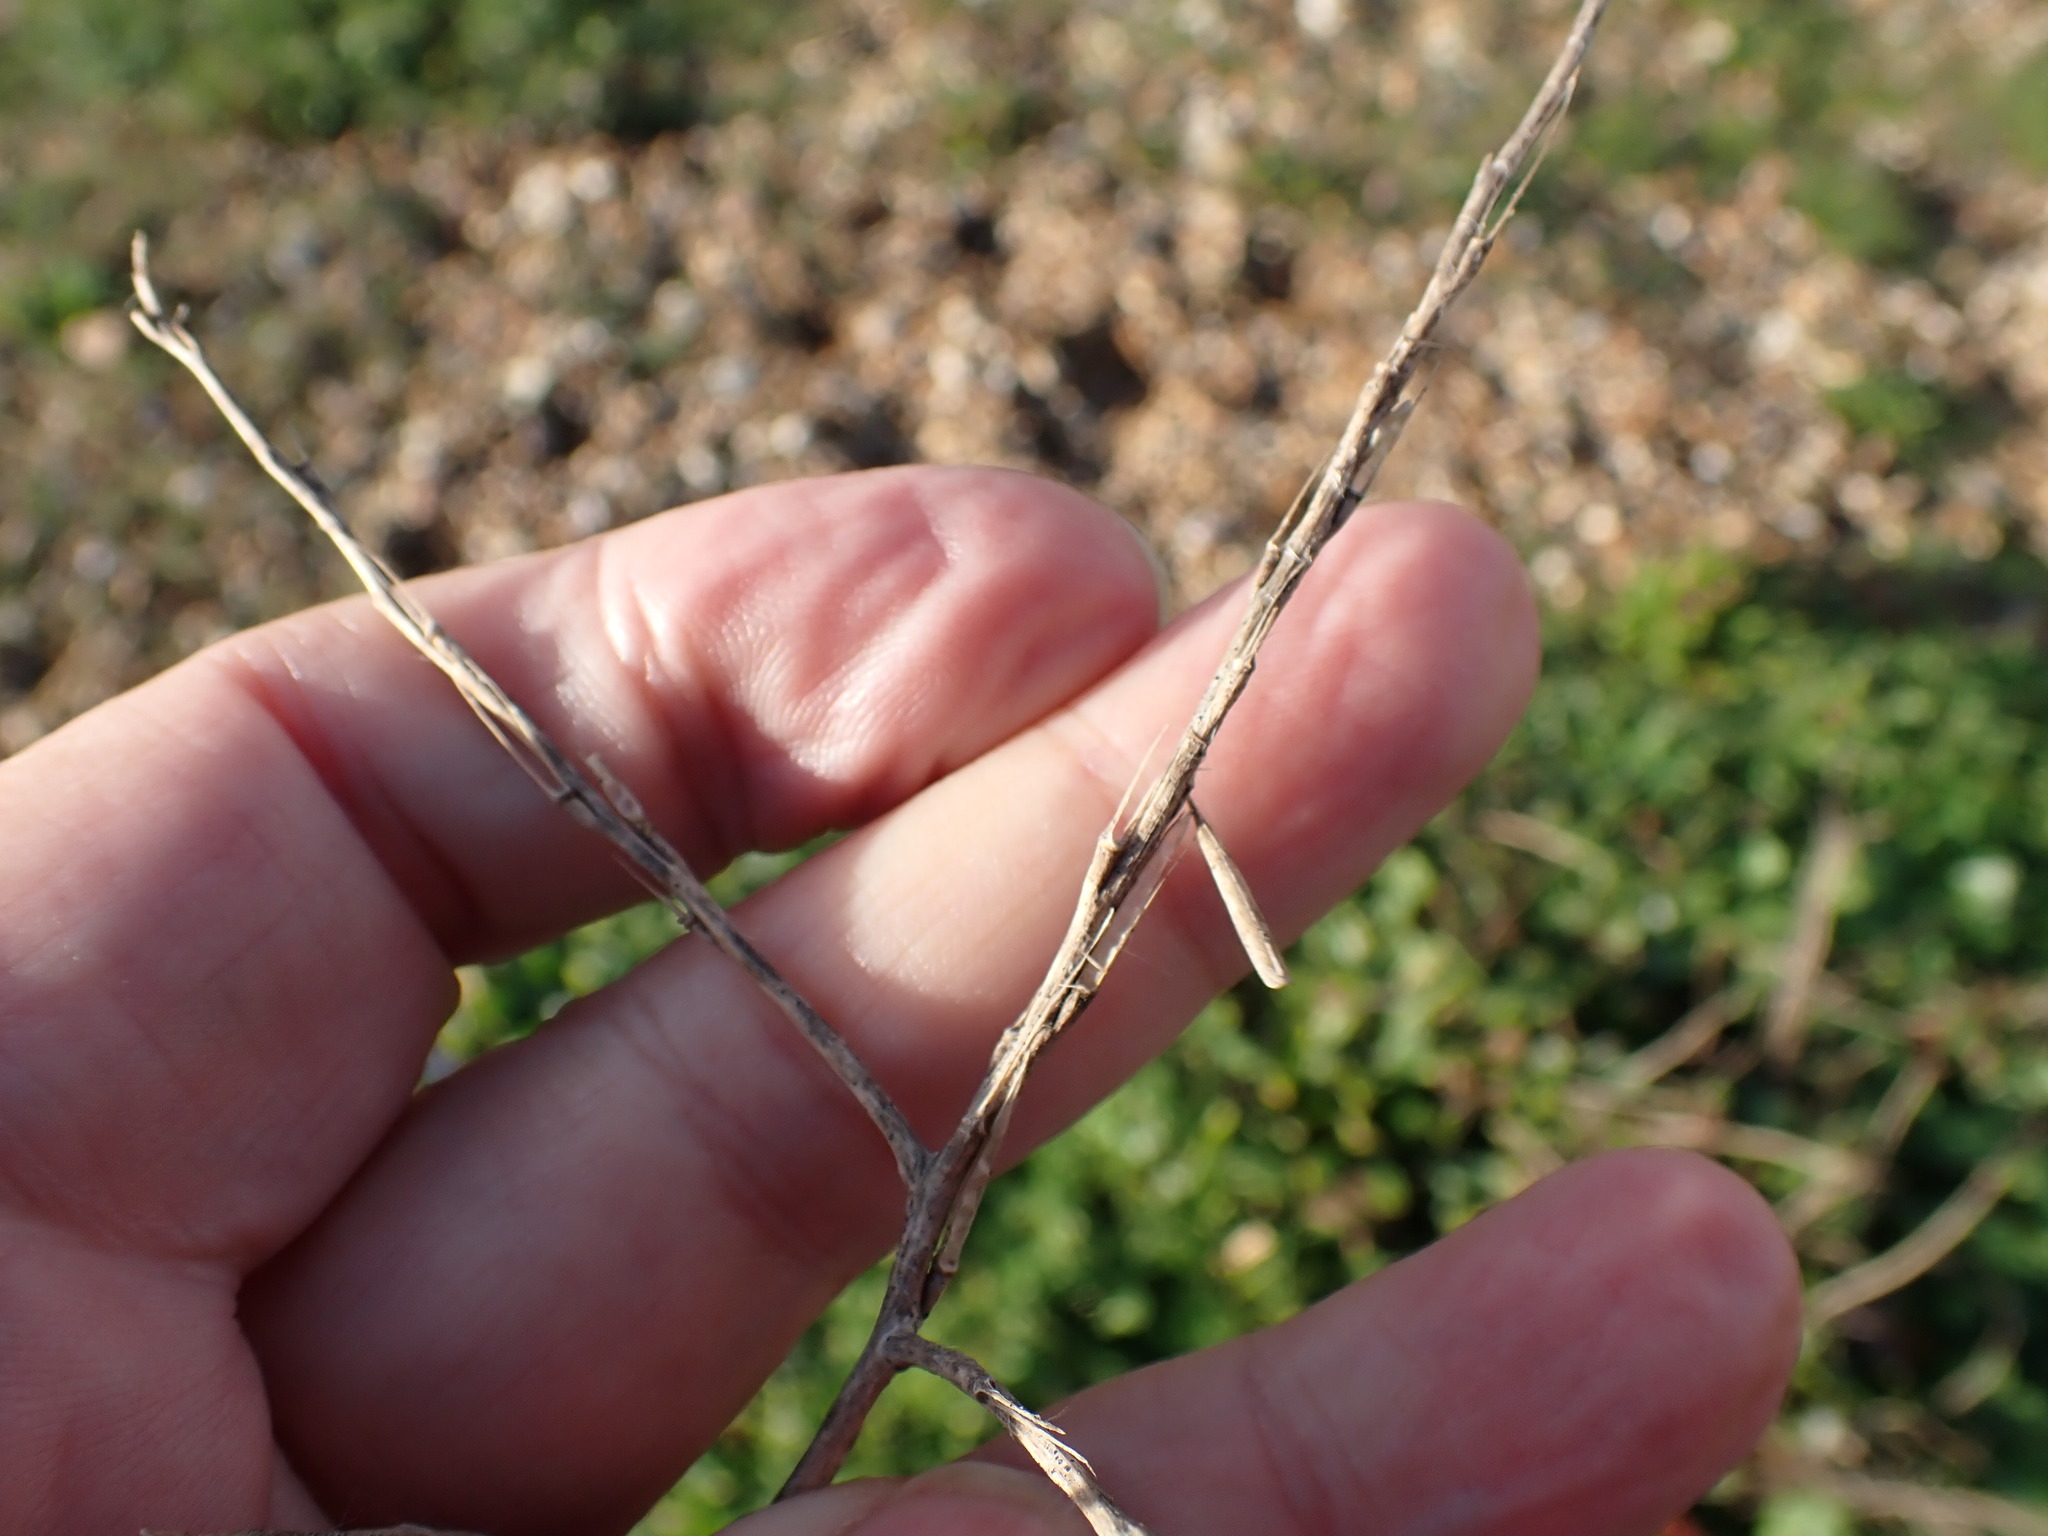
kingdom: Plantae
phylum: Tracheophyta
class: Magnoliopsida
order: Brassicales
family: Brassicaceae
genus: Sisymbrium
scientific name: Sisymbrium officinale
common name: Hedge mustard
